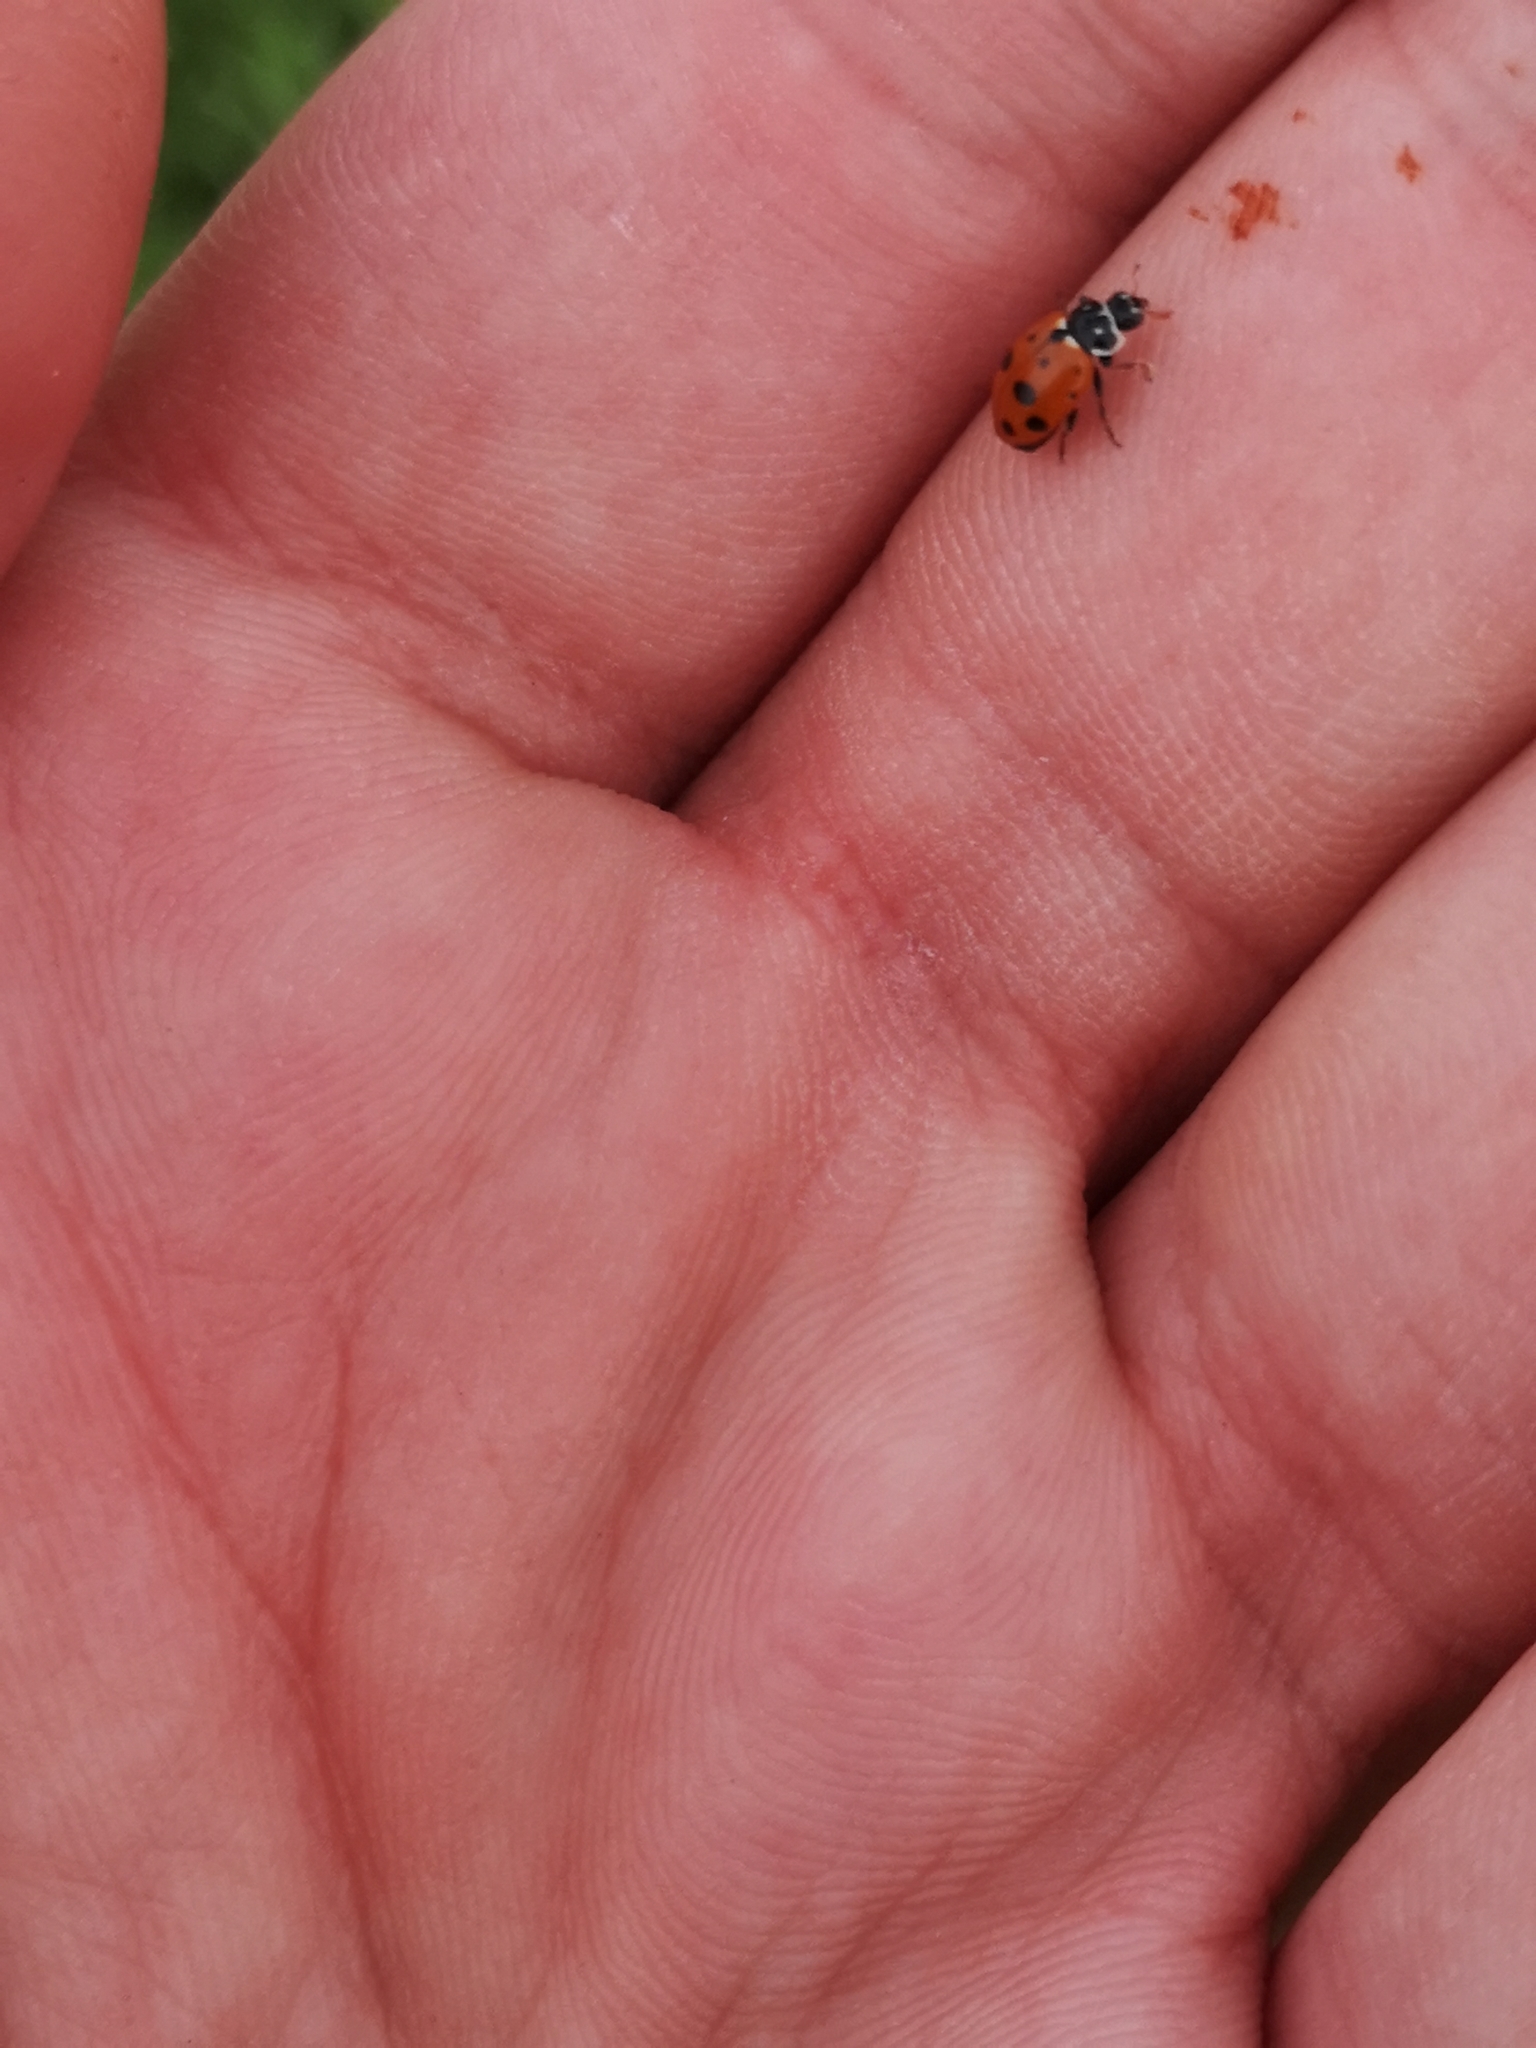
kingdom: Animalia
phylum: Arthropoda
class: Insecta
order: Coleoptera
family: Coccinellidae
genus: Hippodamia
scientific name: Hippodamia variegata
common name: Ladybird beetle
